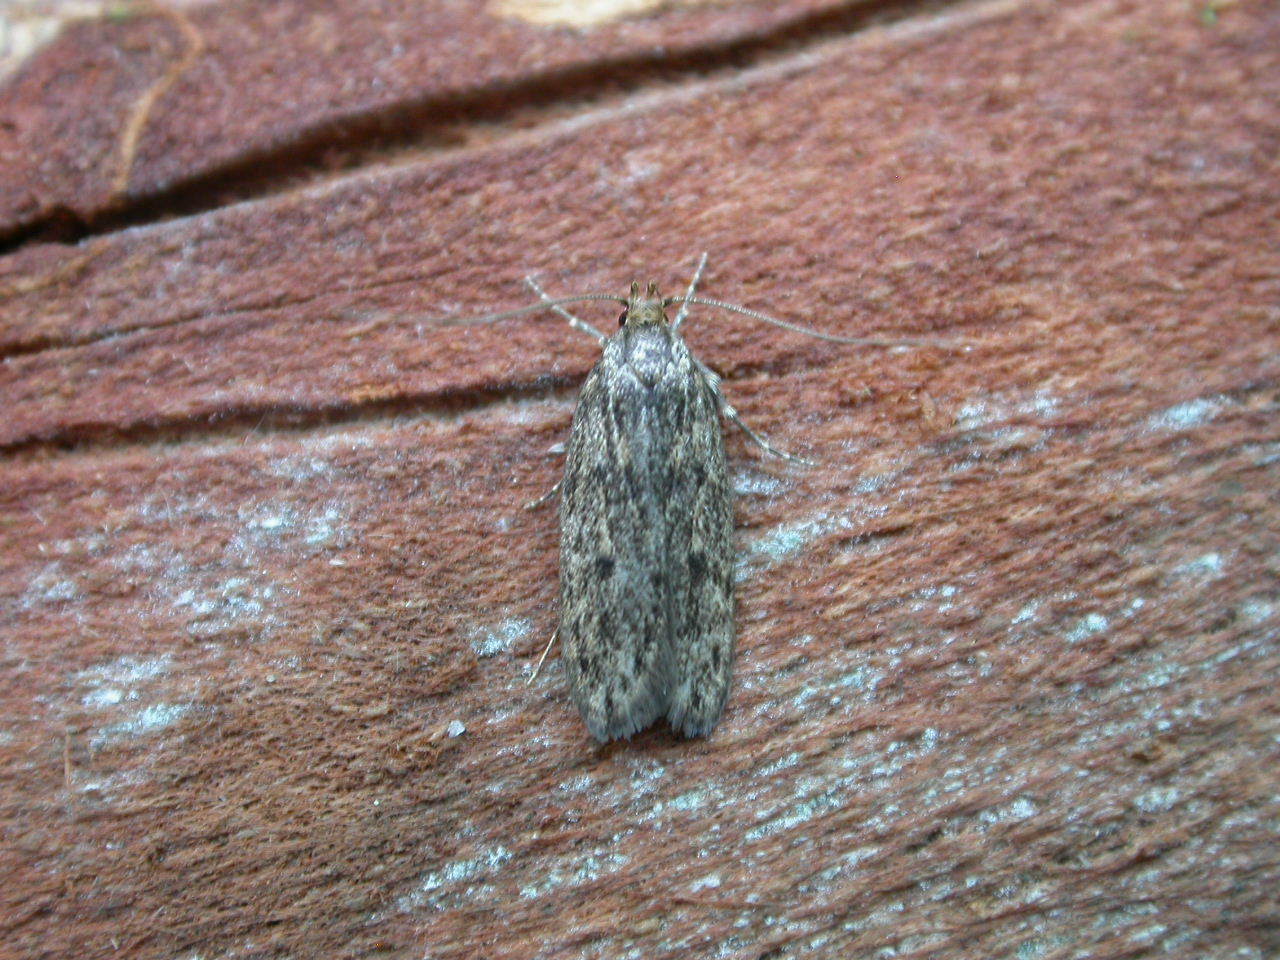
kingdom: Animalia
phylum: Arthropoda
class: Insecta
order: Lepidoptera
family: Oecophoridae
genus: Hofmannophila
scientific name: Hofmannophila pseudospretella
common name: Brown house moth
